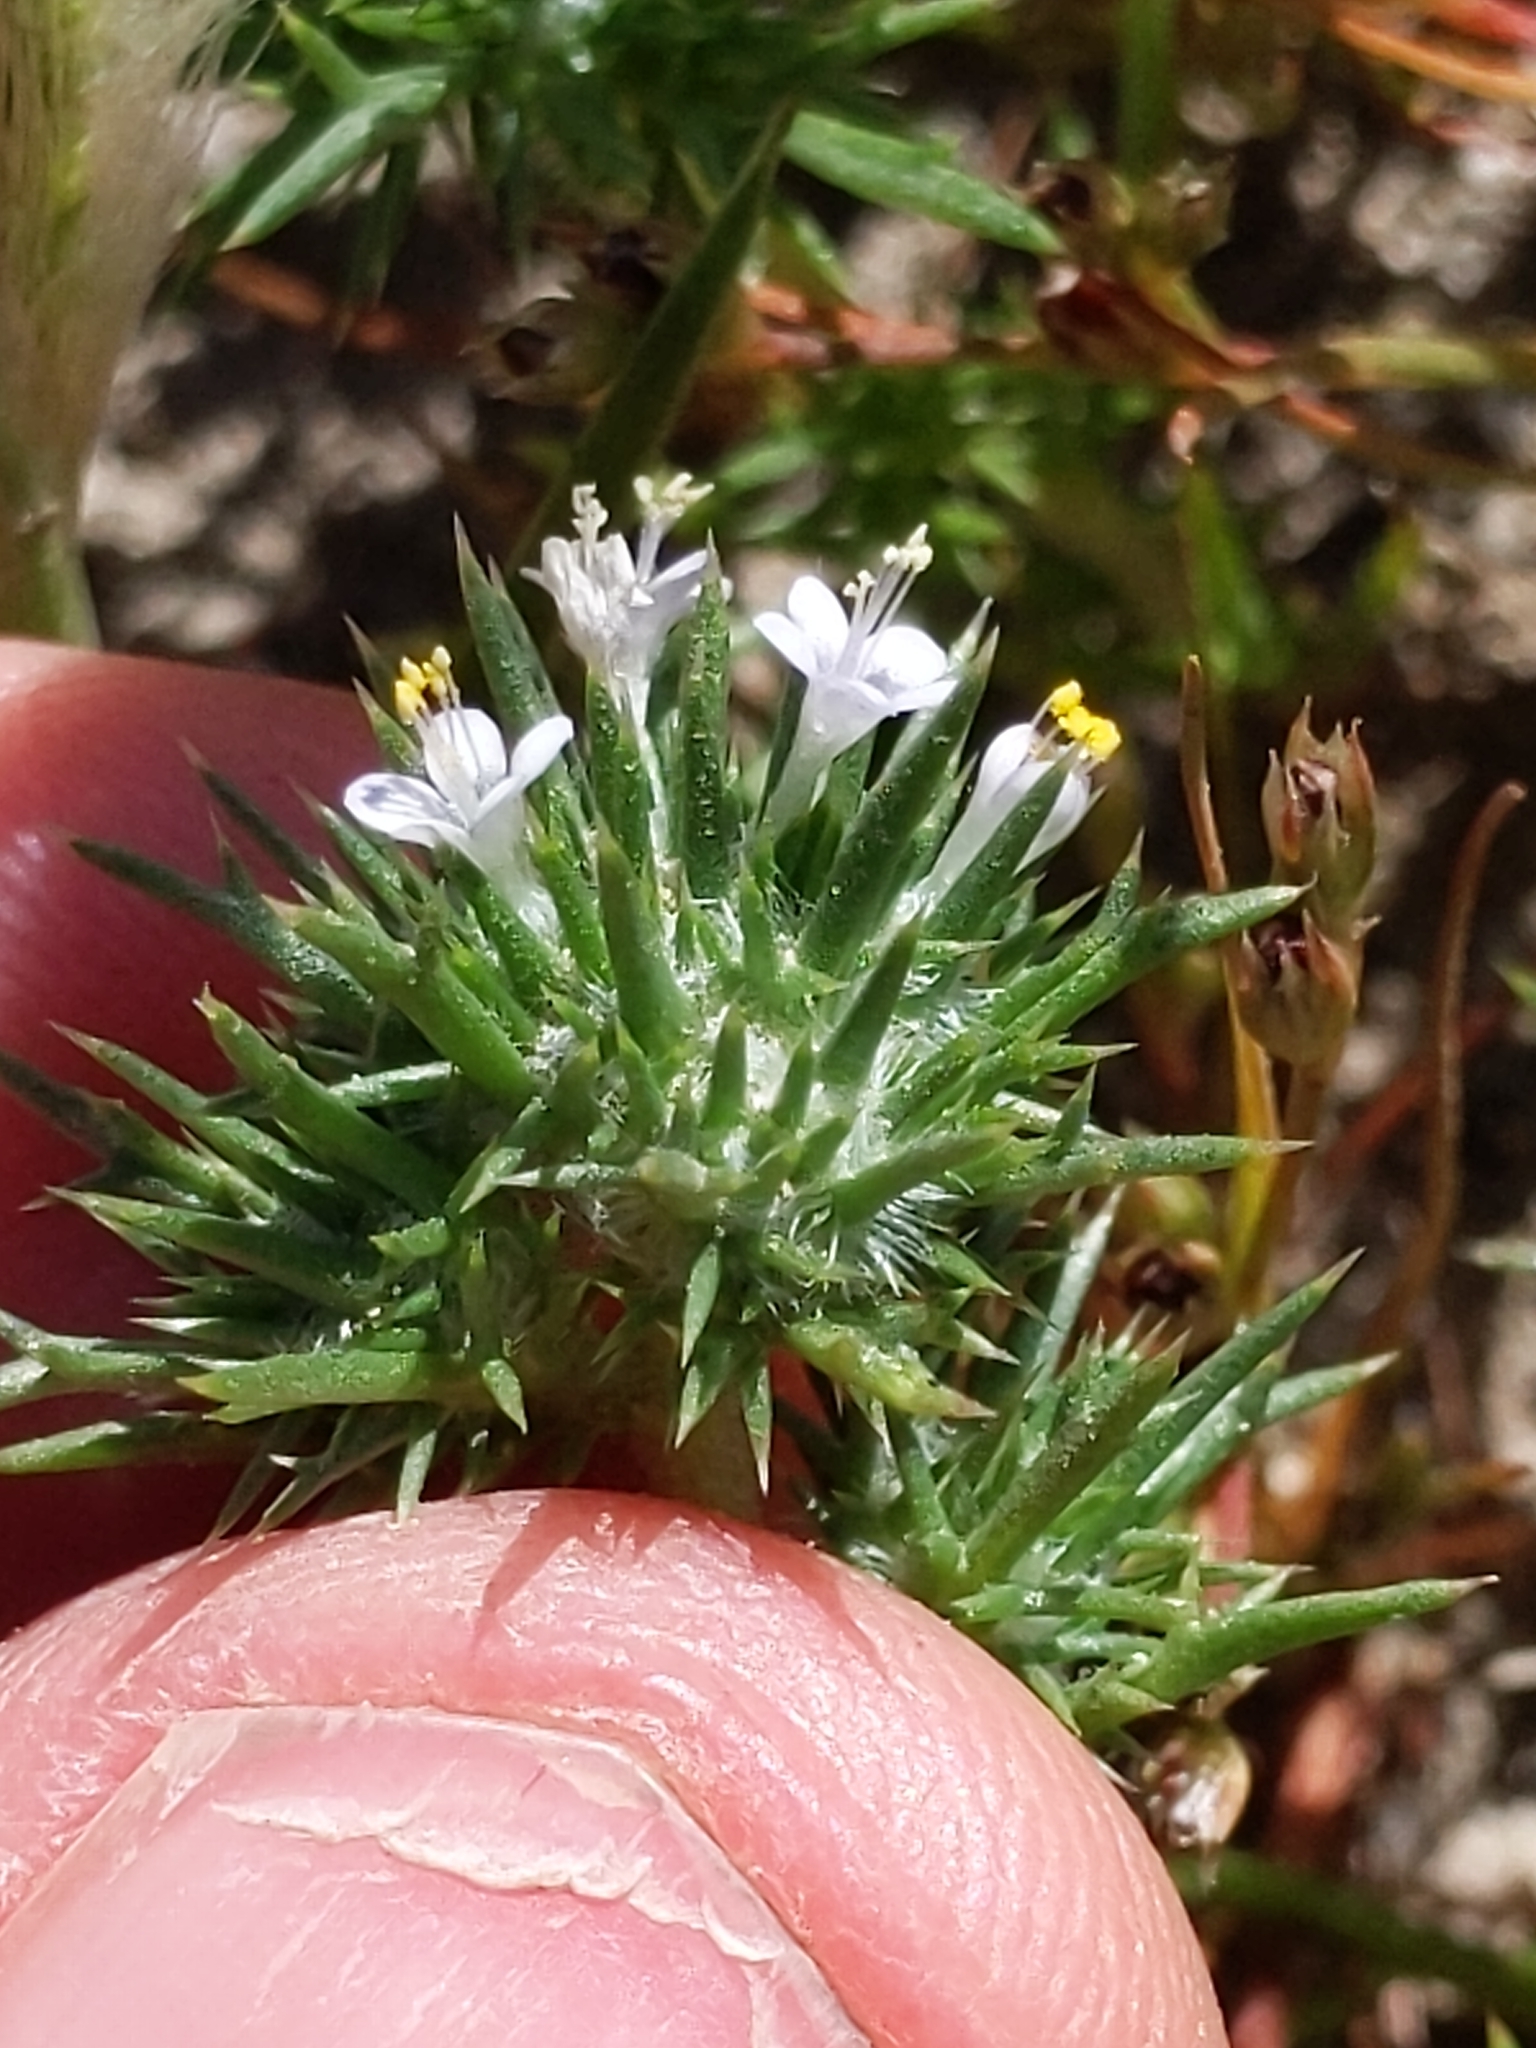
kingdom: Plantae
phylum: Tracheophyta
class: Magnoliopsida
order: Ericales
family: Polemoniaceae
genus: Navarretia
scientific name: Navarretia intertexta
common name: Needle-leaved navarretia
